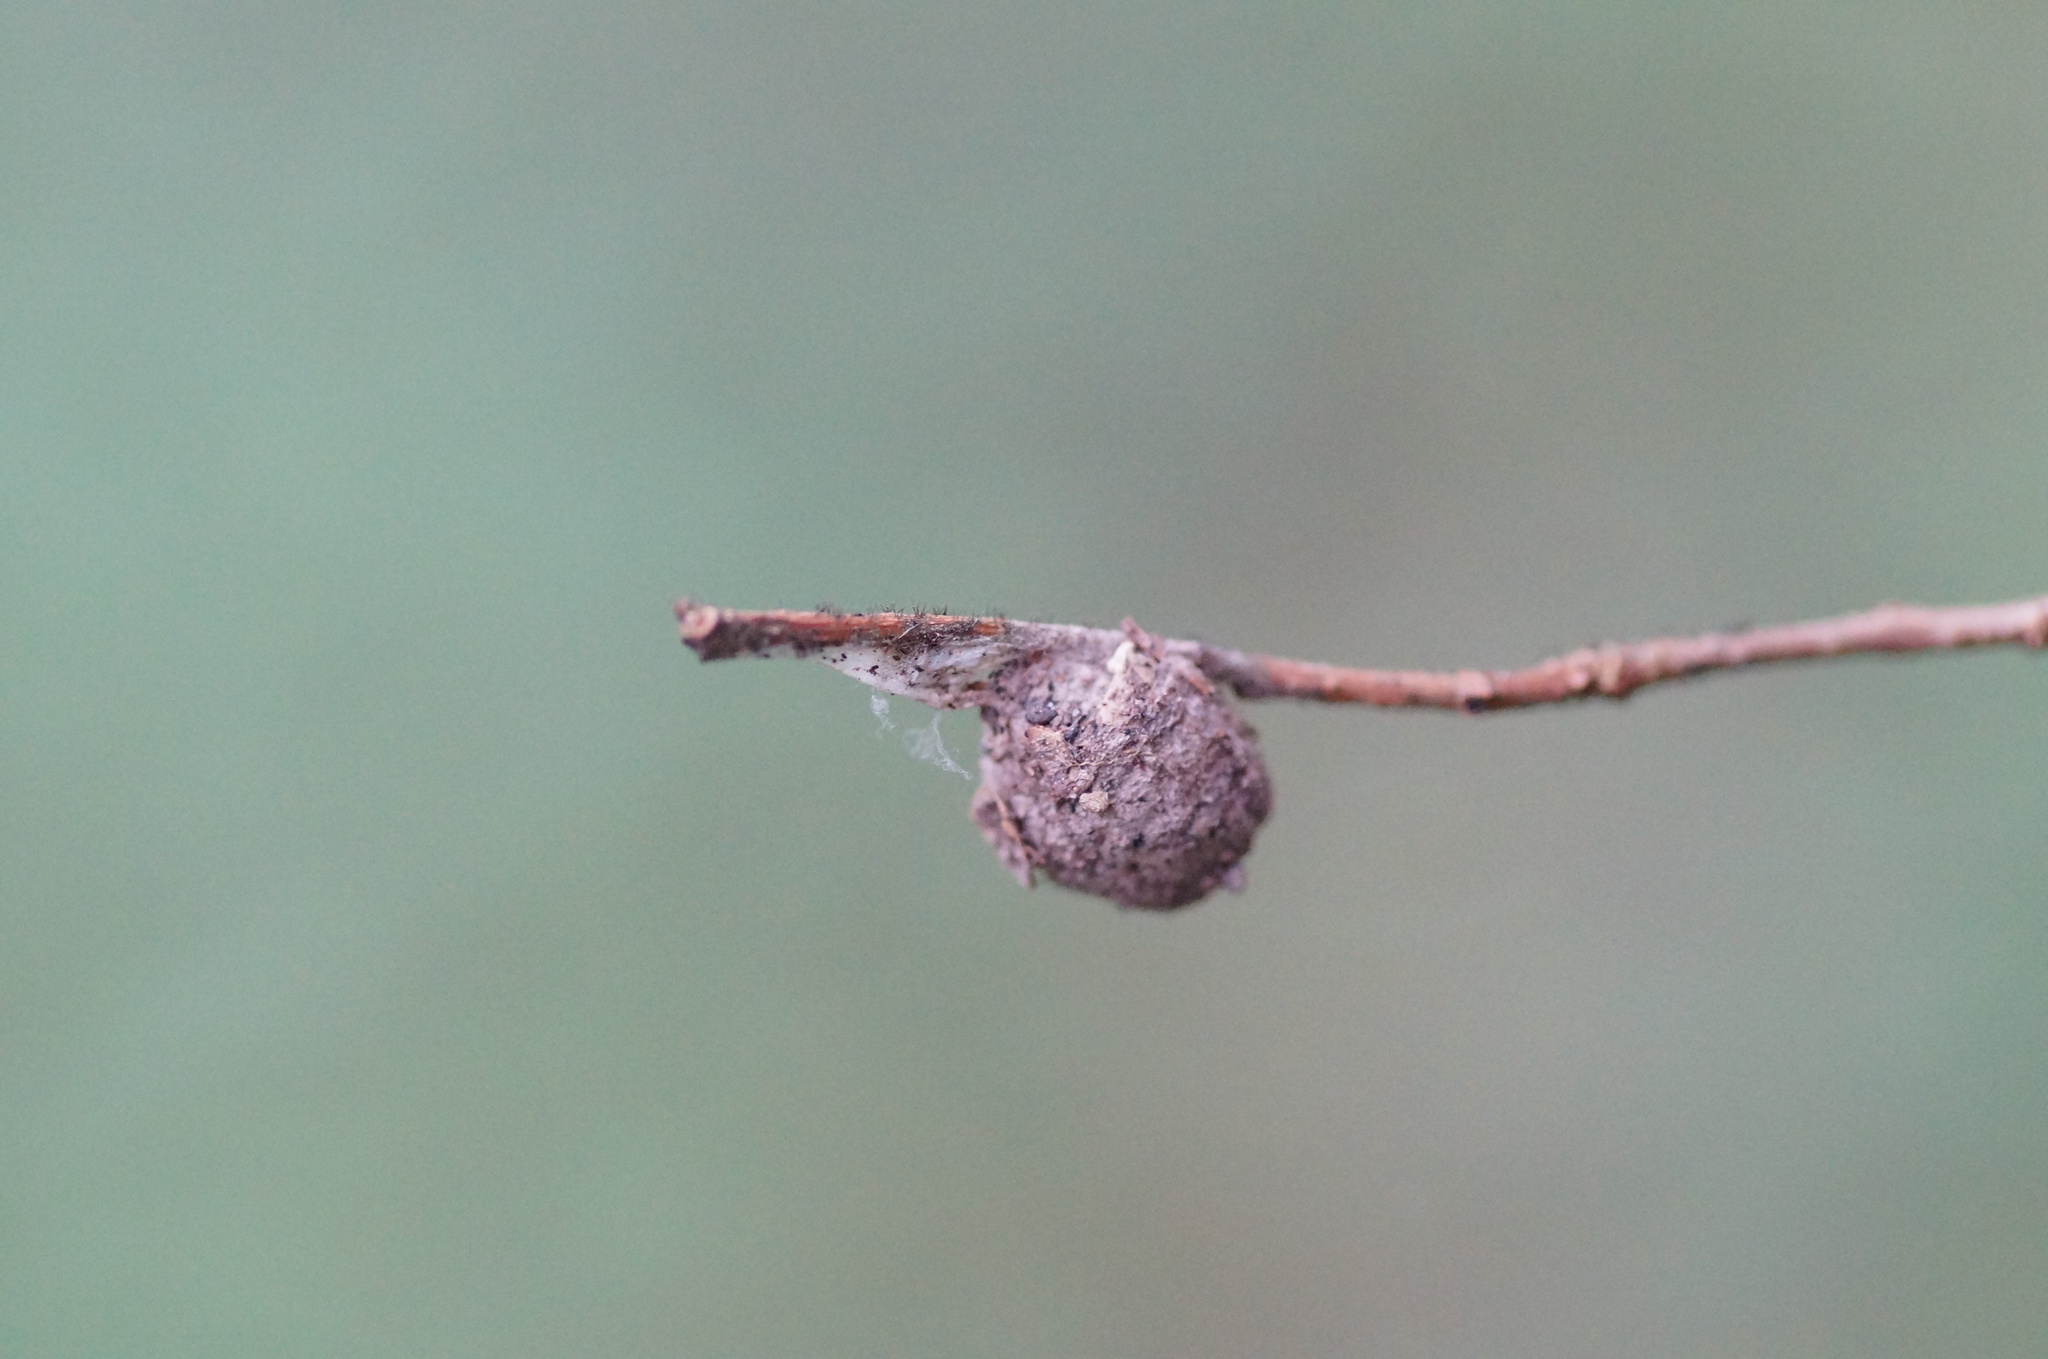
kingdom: Animalia
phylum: Arthropoda
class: Arachnida
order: Araneae
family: Liocranidae
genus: Agroeca
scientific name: Agroeca
